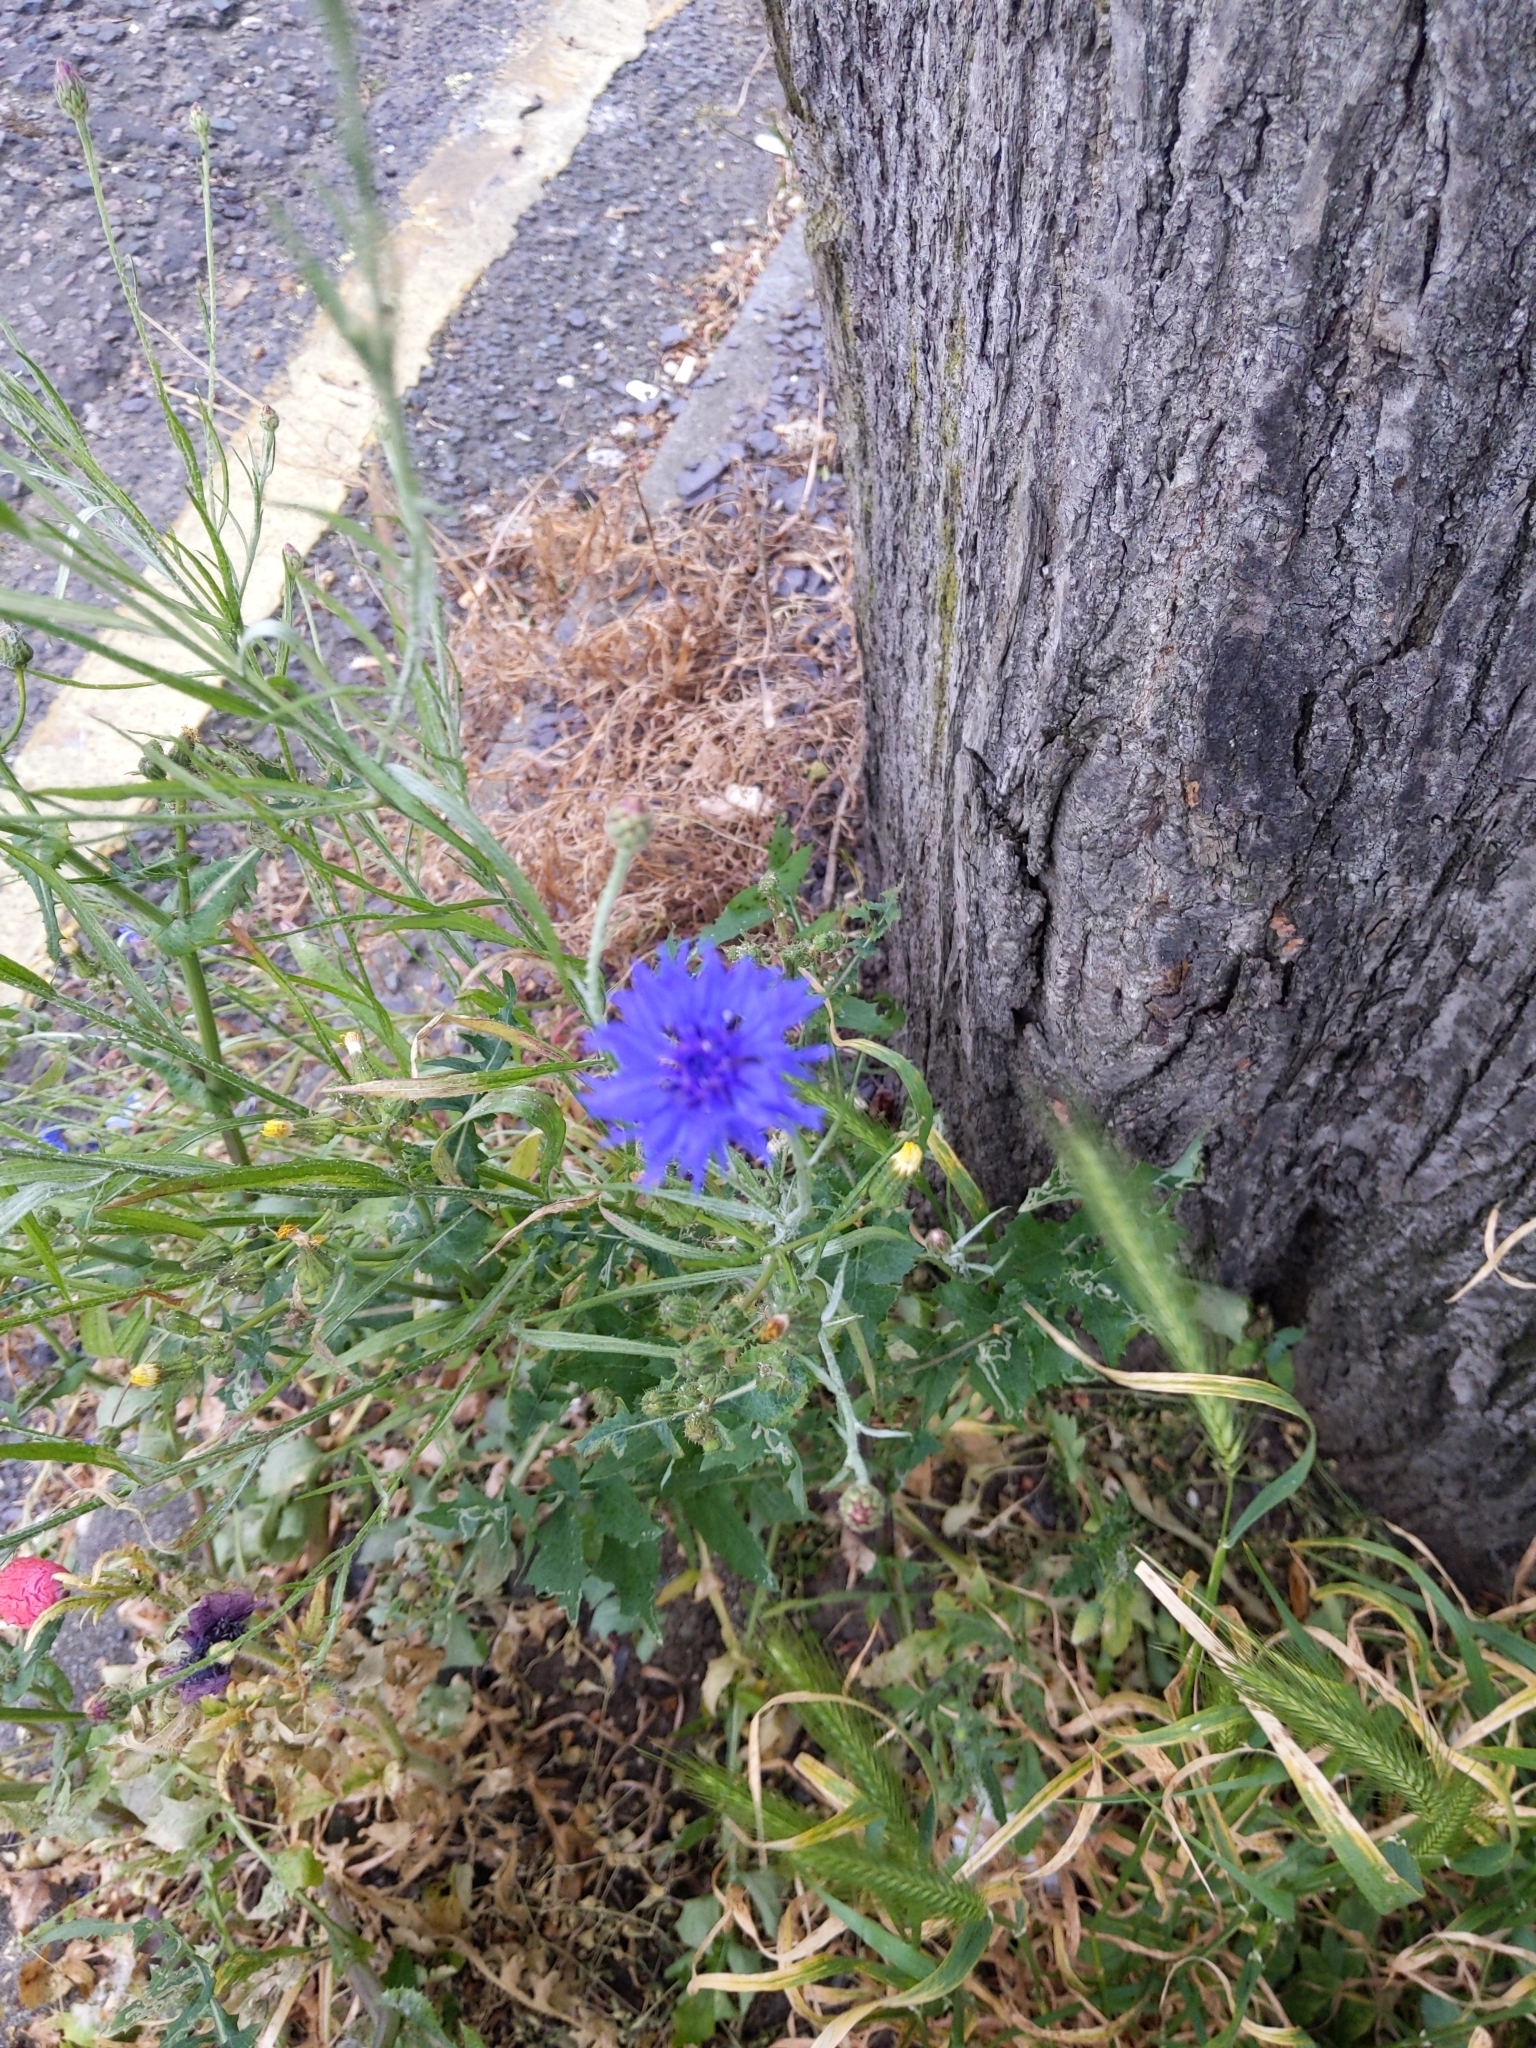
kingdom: Plantae
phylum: Tracheophyta
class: Magnoliopsida
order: Asterales
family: Asteraceae
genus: Centaurea
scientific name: Centaurea cyanus
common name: Cornflower
